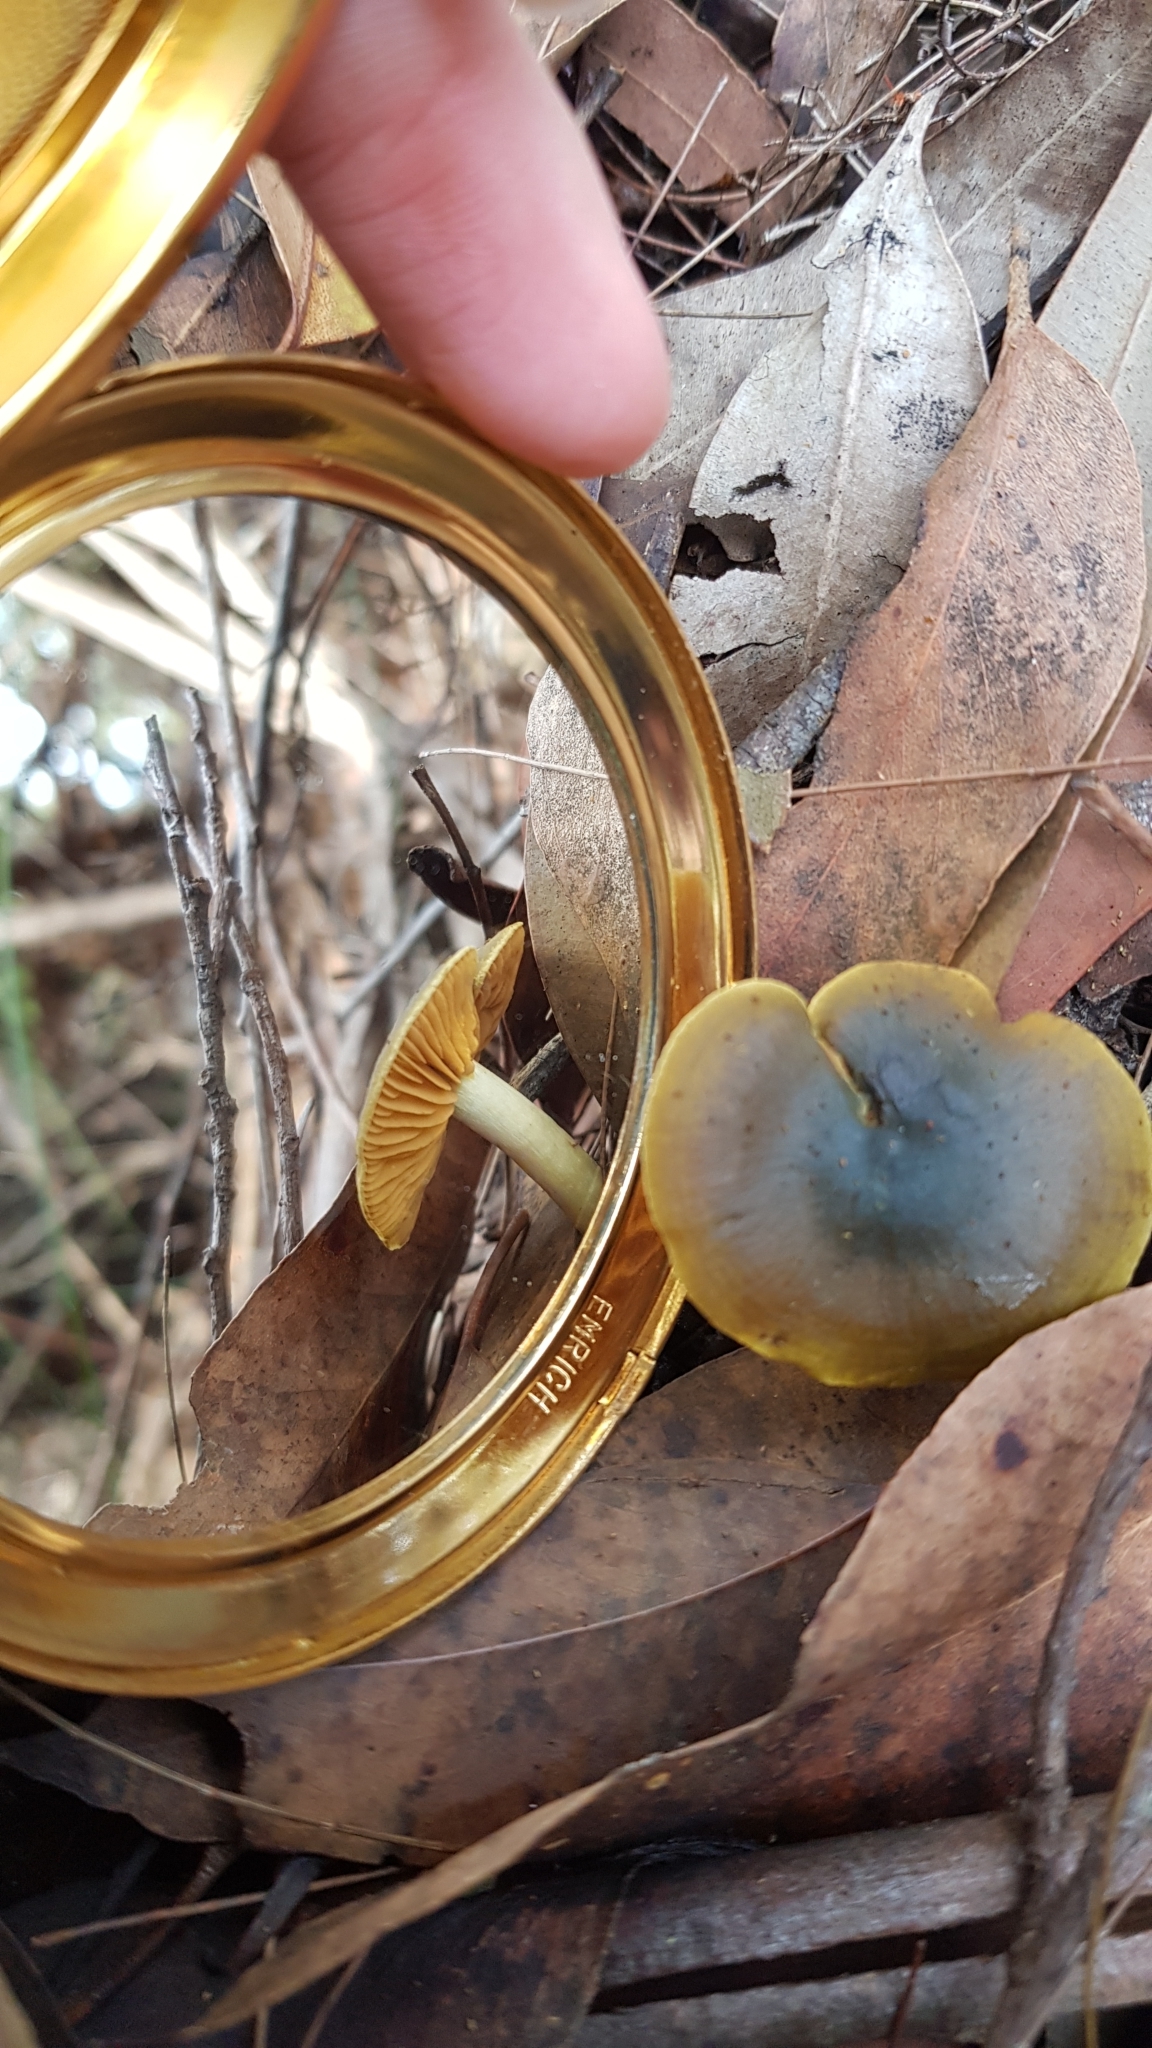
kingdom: Fungi
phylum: Basidiomycota
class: Agaricomycetes
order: Agaricales
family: Cortinariaceae
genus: Cortinarius
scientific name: Cortinarius austrovenetus
